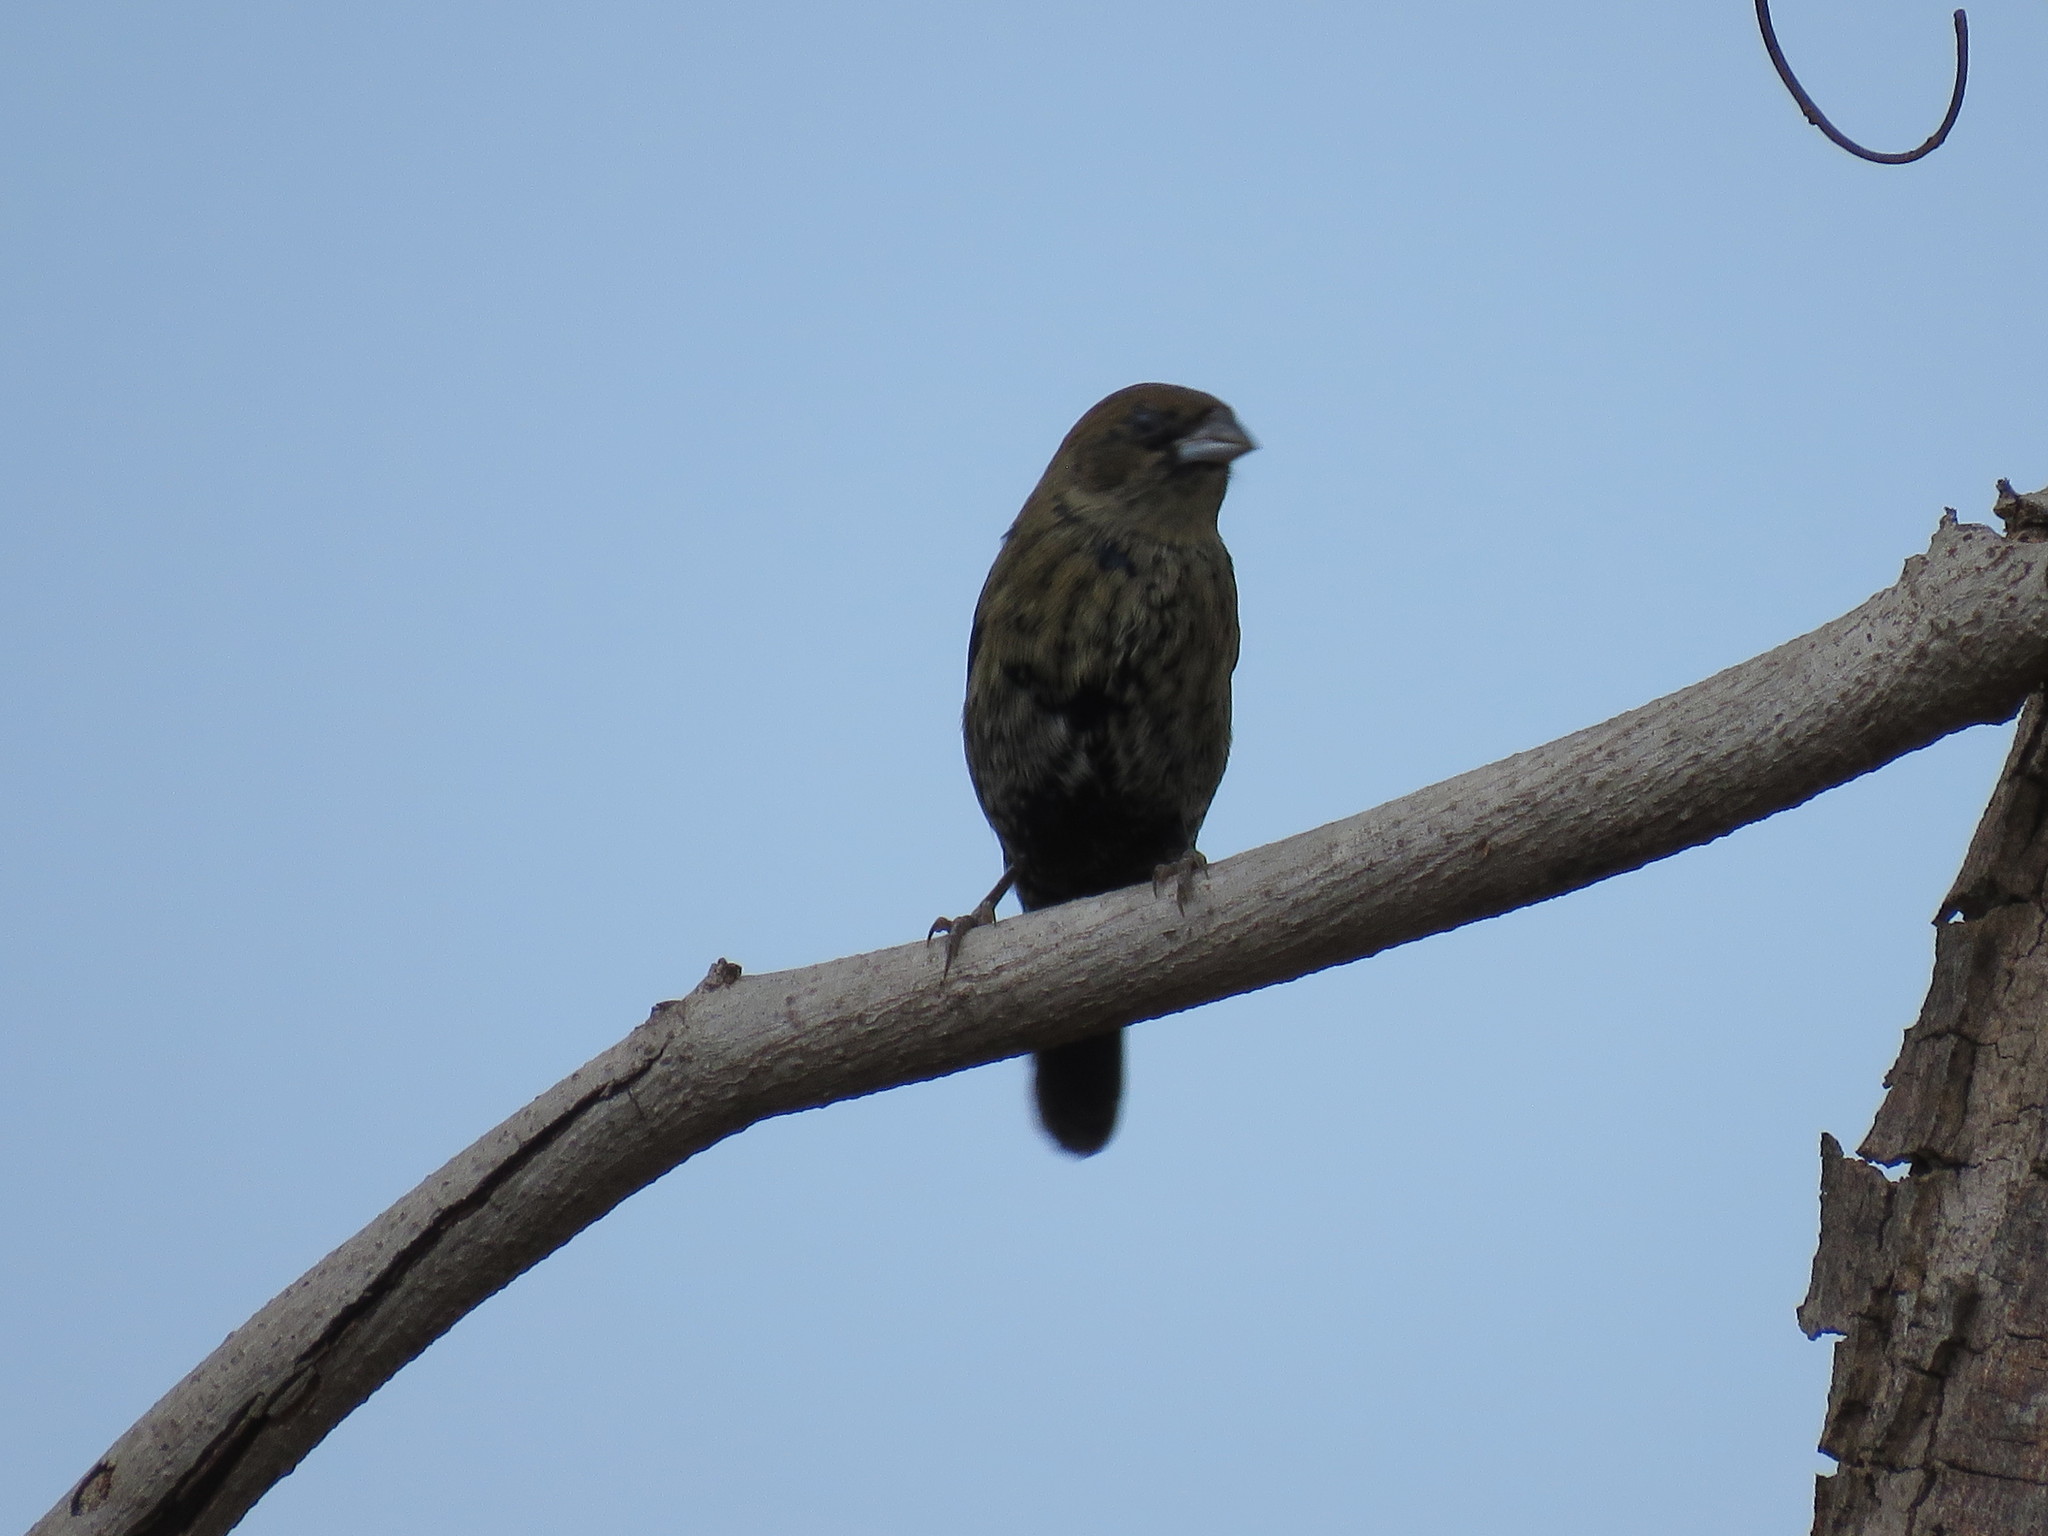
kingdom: Animalia
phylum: Chordata
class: Aves
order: Passeriformes
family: Thraupidae
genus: Volatinia
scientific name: Volatinia jacarina
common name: Blue-black grassquit
